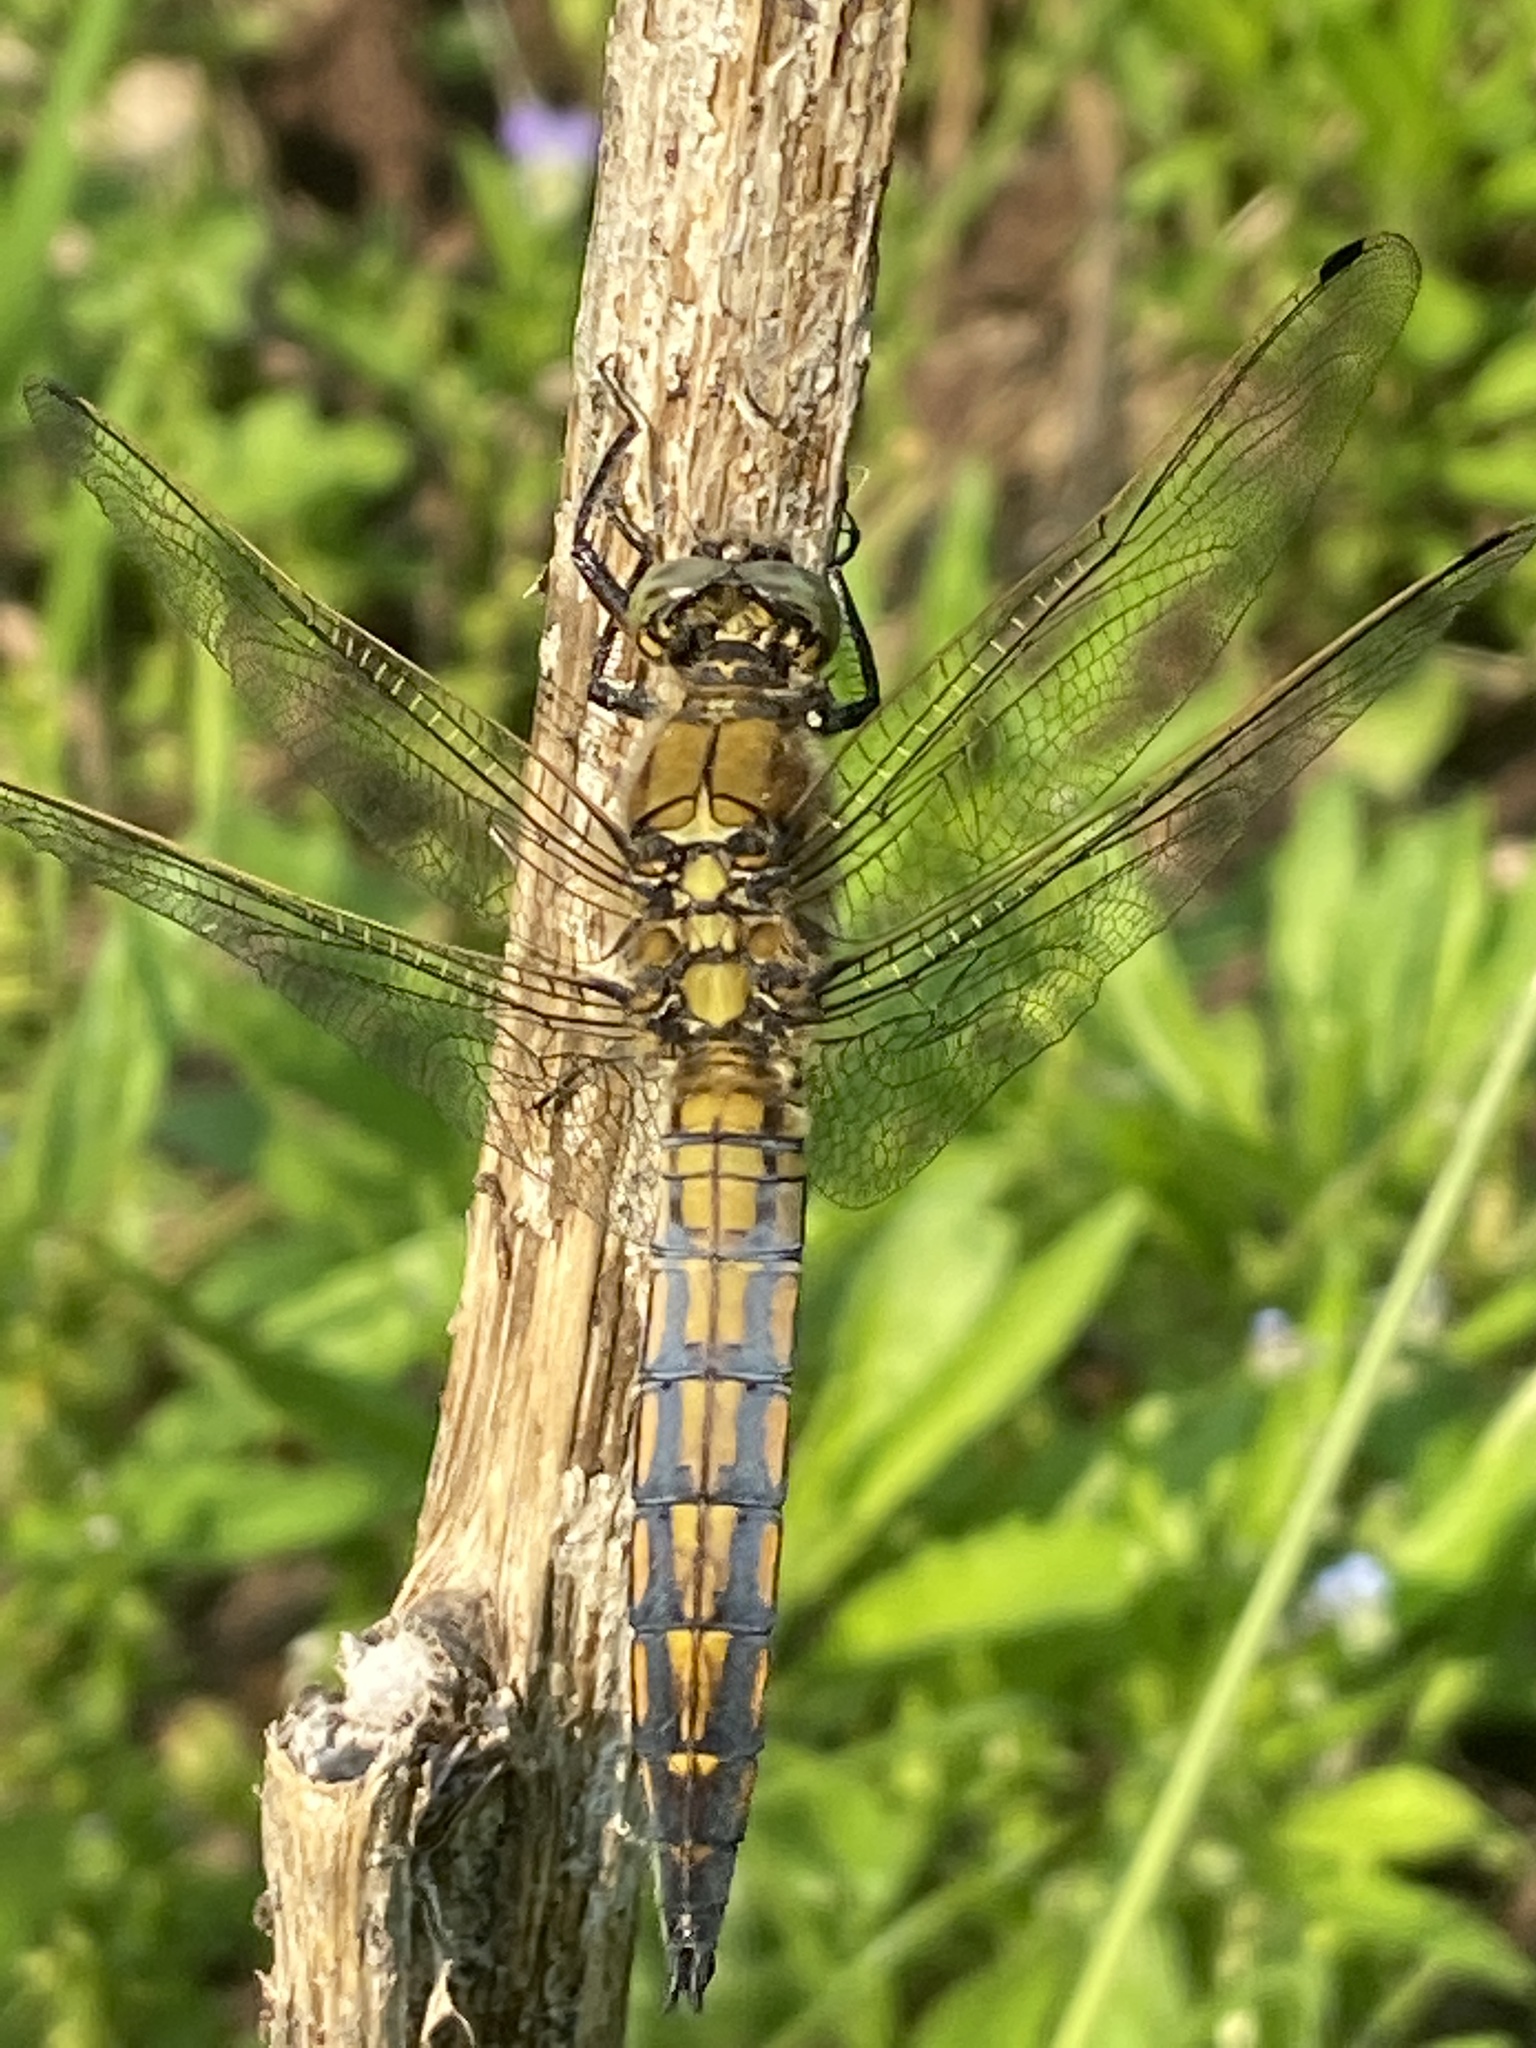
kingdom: Animalia
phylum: Arthropoda
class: Insecta
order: Odonata
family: Libellulidae
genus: Orthetrum
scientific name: Orthetrum cancellatum
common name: Black-tailed skimmer
